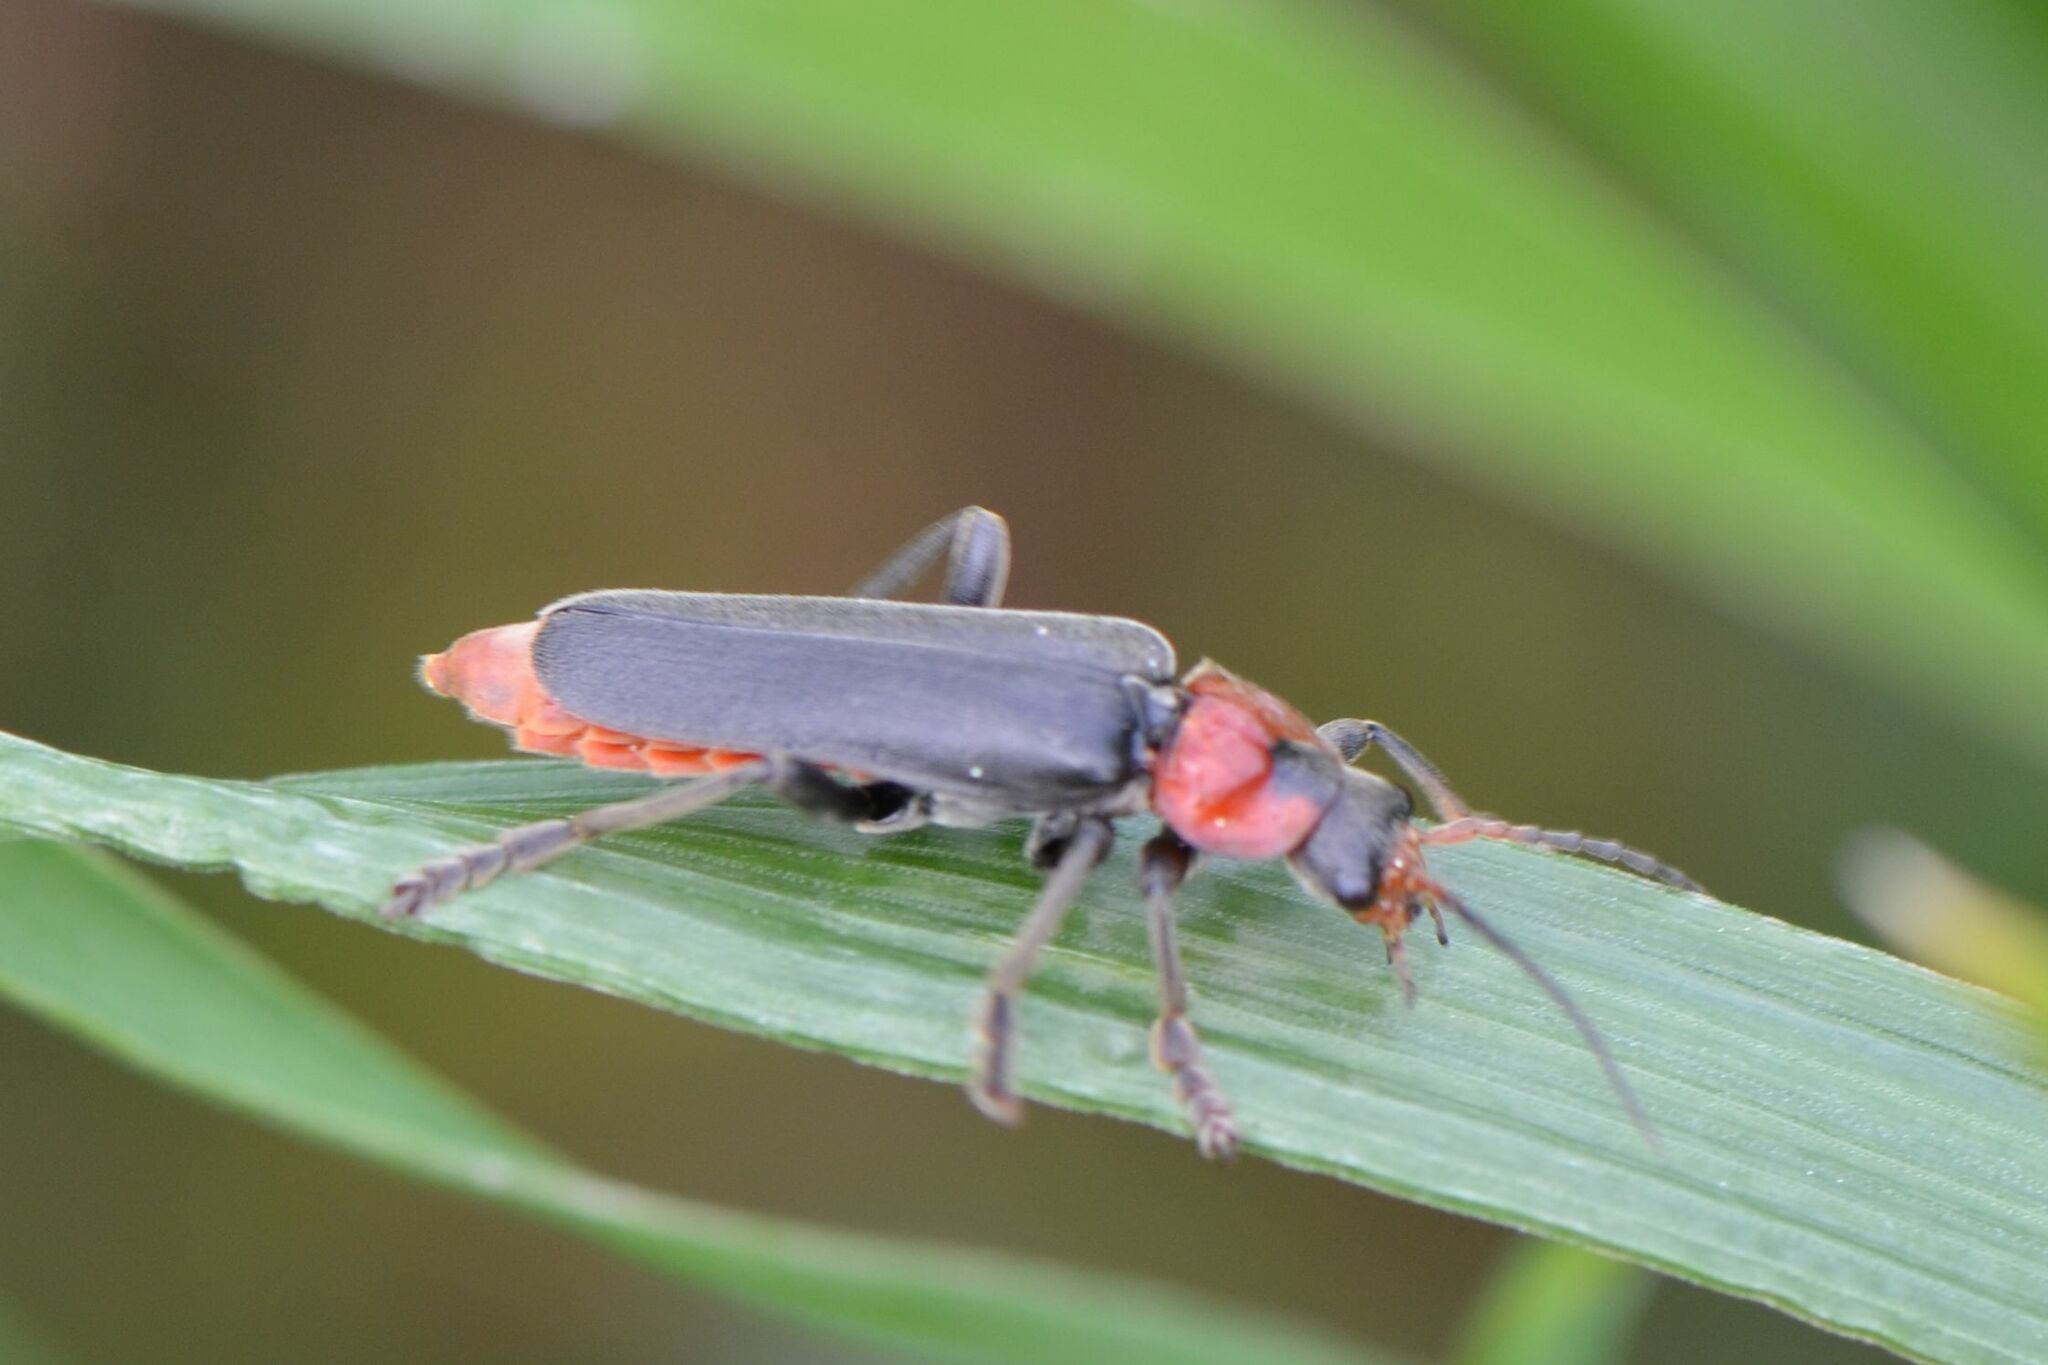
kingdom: Animalia
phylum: Arthropoda
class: Insecta
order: Coleoptera
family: Cantharidae
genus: Cantharis
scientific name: Cantharis fusca
